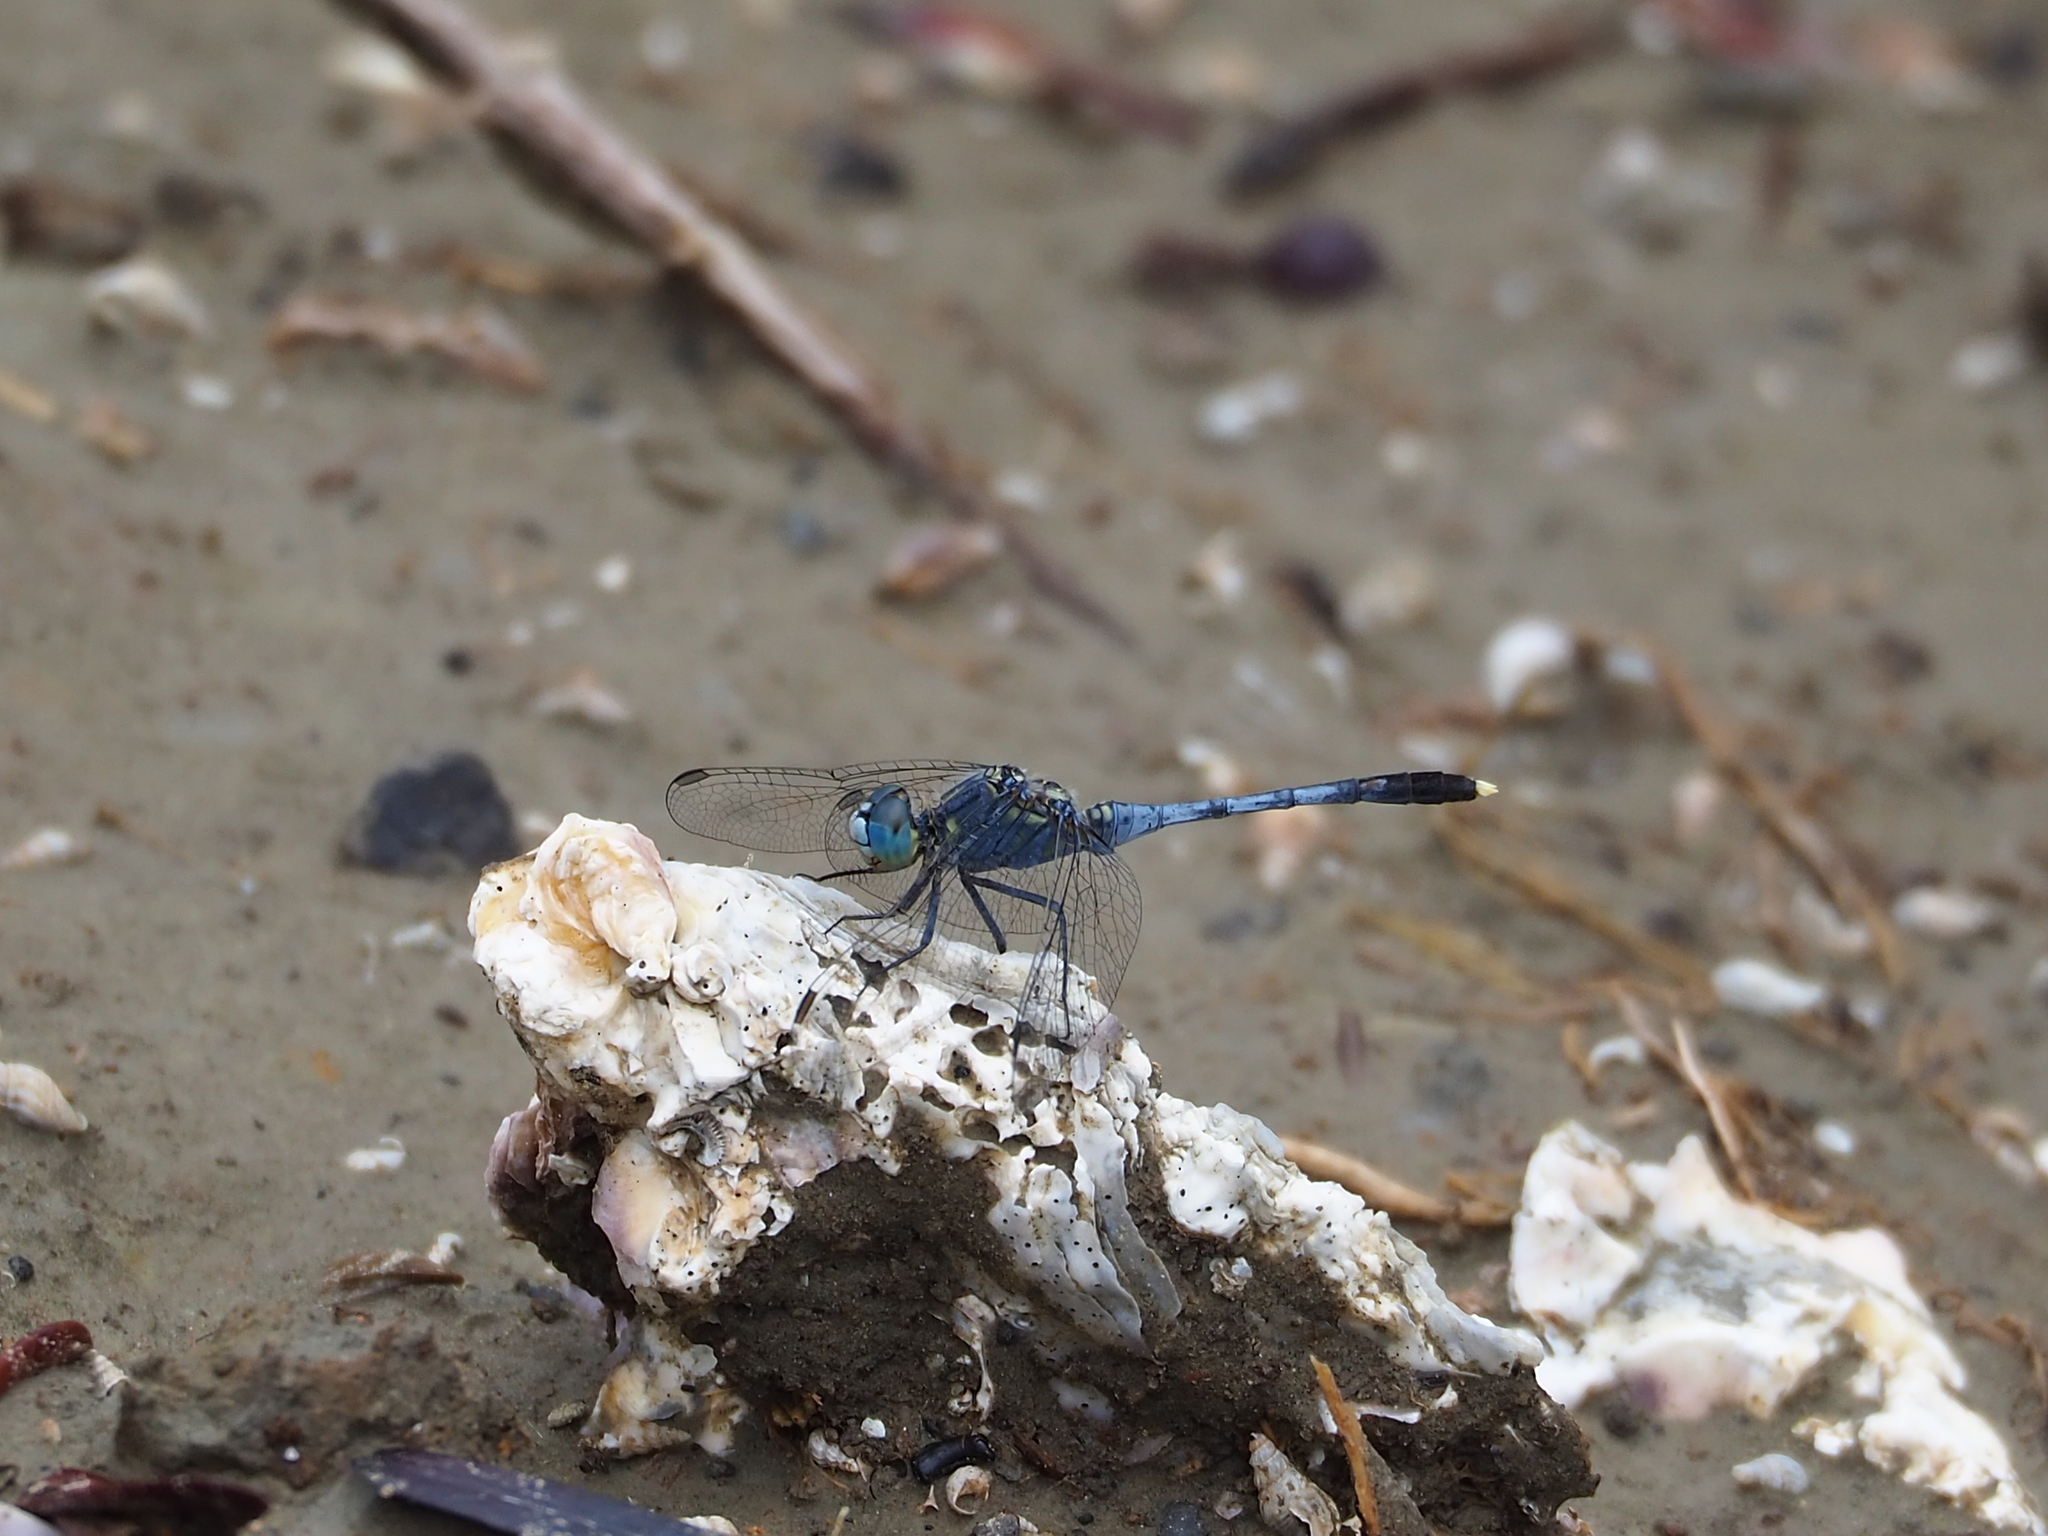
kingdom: Animalia
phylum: Arthropoda
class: Insecta
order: Odonata
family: Libellulidae
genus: Diplacodes
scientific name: Diplacodes trivialis
